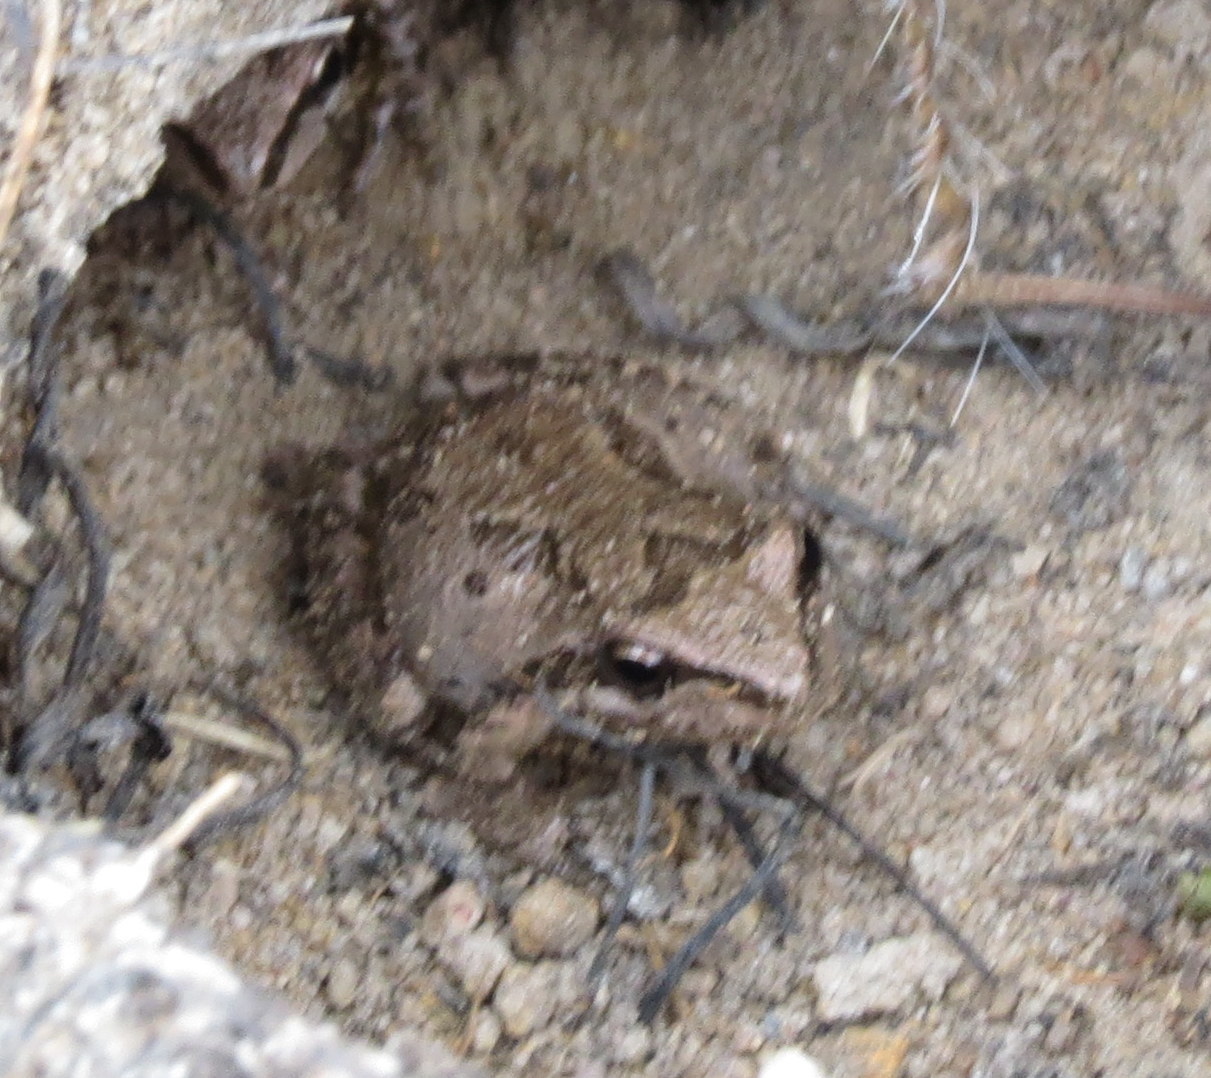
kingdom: Animalia
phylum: Chordata
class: Amphibia
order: Anura
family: Hylidae
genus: Pseudacris
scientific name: Pseudacris regilla
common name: Pacific chorus frog
